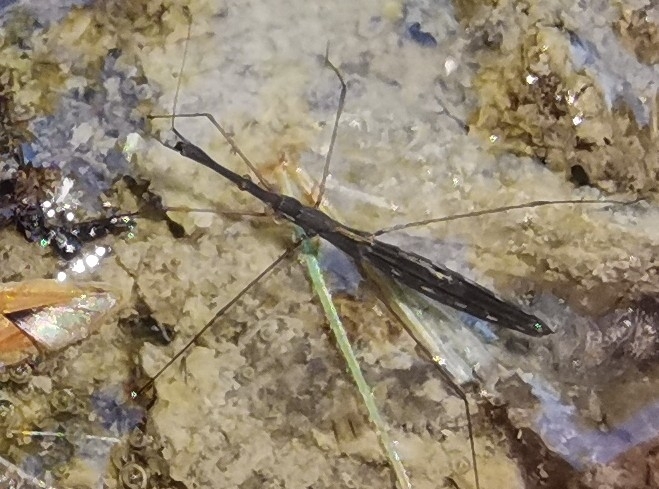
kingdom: Animalia
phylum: Arthropoda
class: Insecta
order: Hemiptera
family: Hydrometridae
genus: Hydrometra
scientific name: Hydrometra stagnorum
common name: Water measurer
